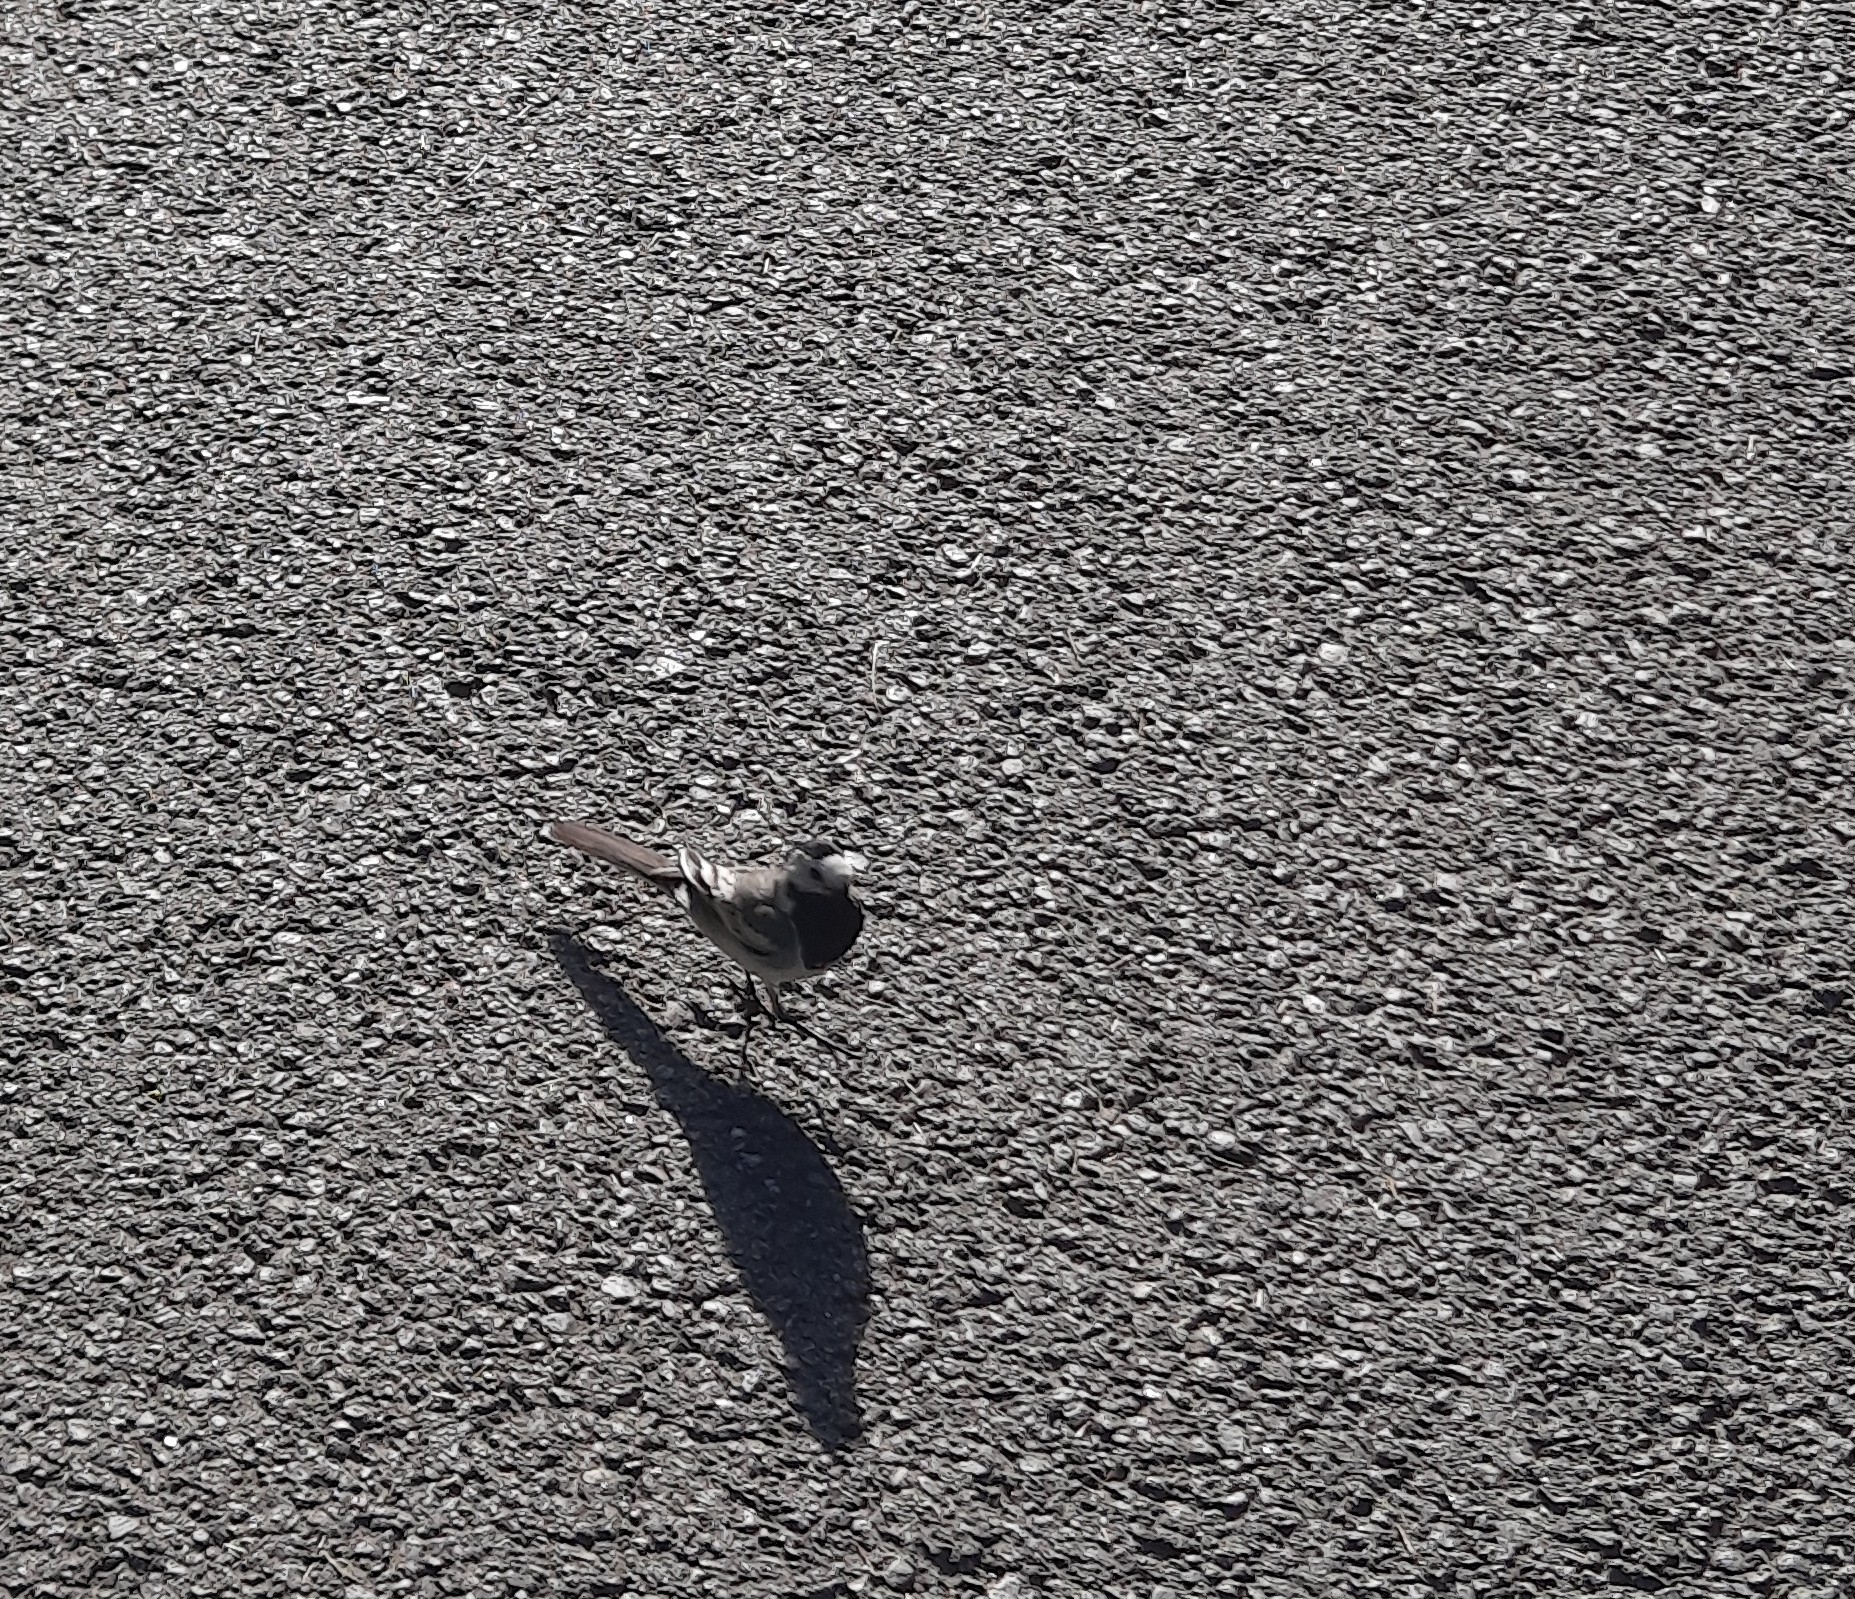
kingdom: Animalia
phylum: Chordata
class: Aves
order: Passeriformes
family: Motacillidae
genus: Motacilla
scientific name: Motacilla alba
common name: White wagtail
